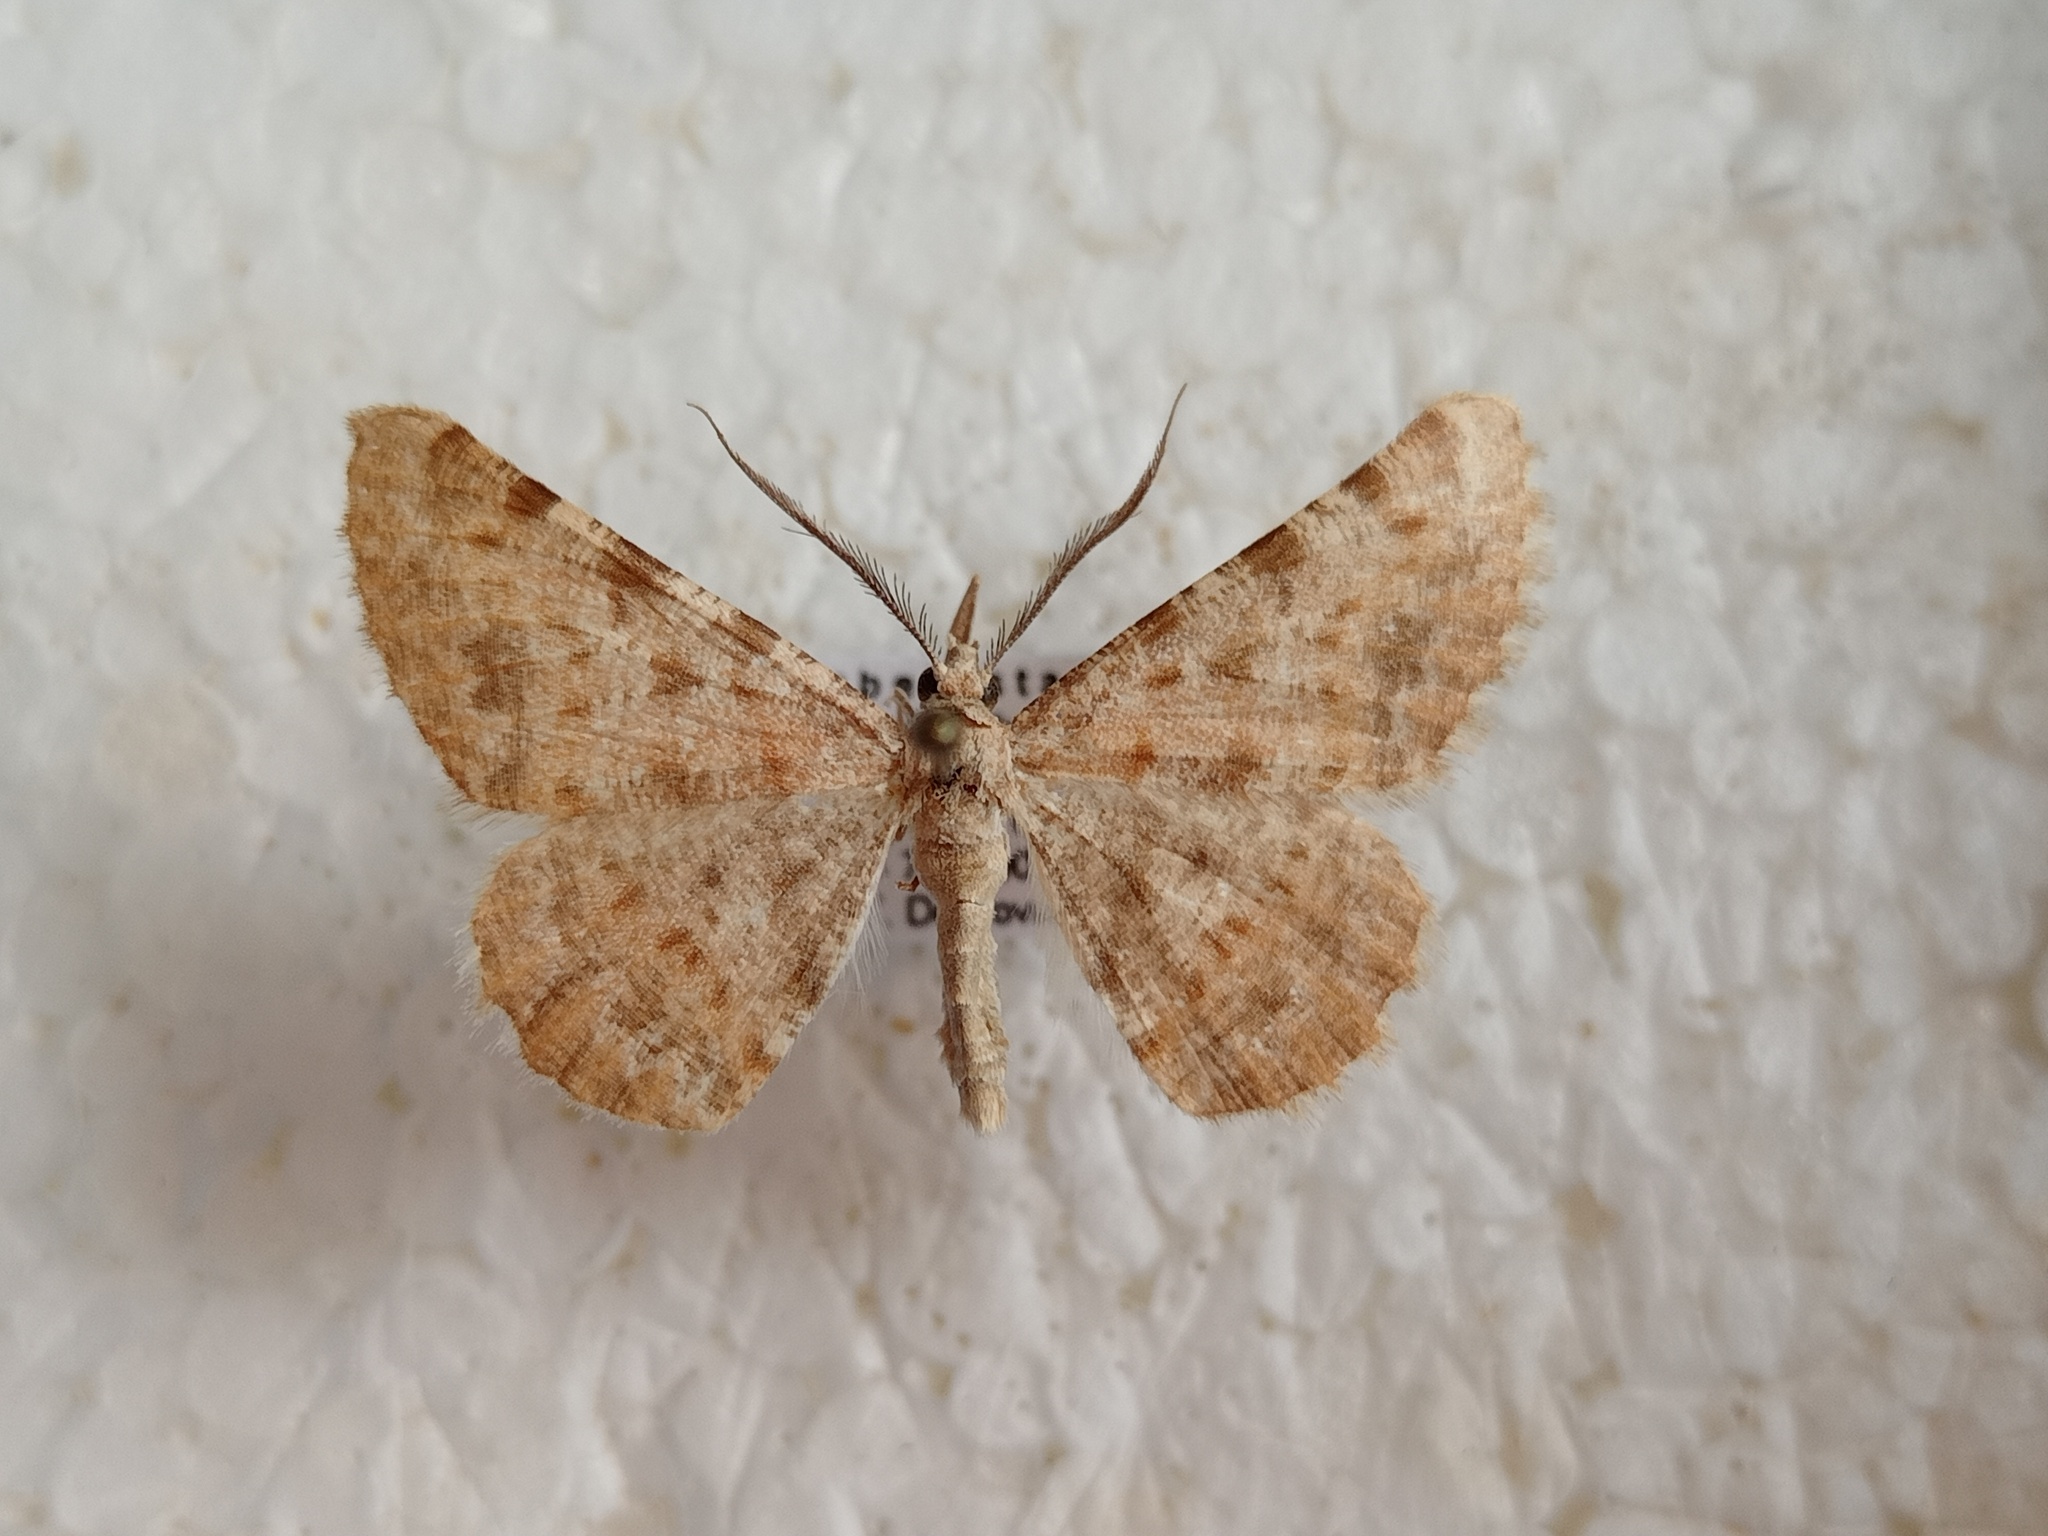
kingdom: Animalia
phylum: Arthropoda
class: Insecta
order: Lepidoptera
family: Geometridae
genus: Gnopharmia
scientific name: Gnopharmia colchidaria
